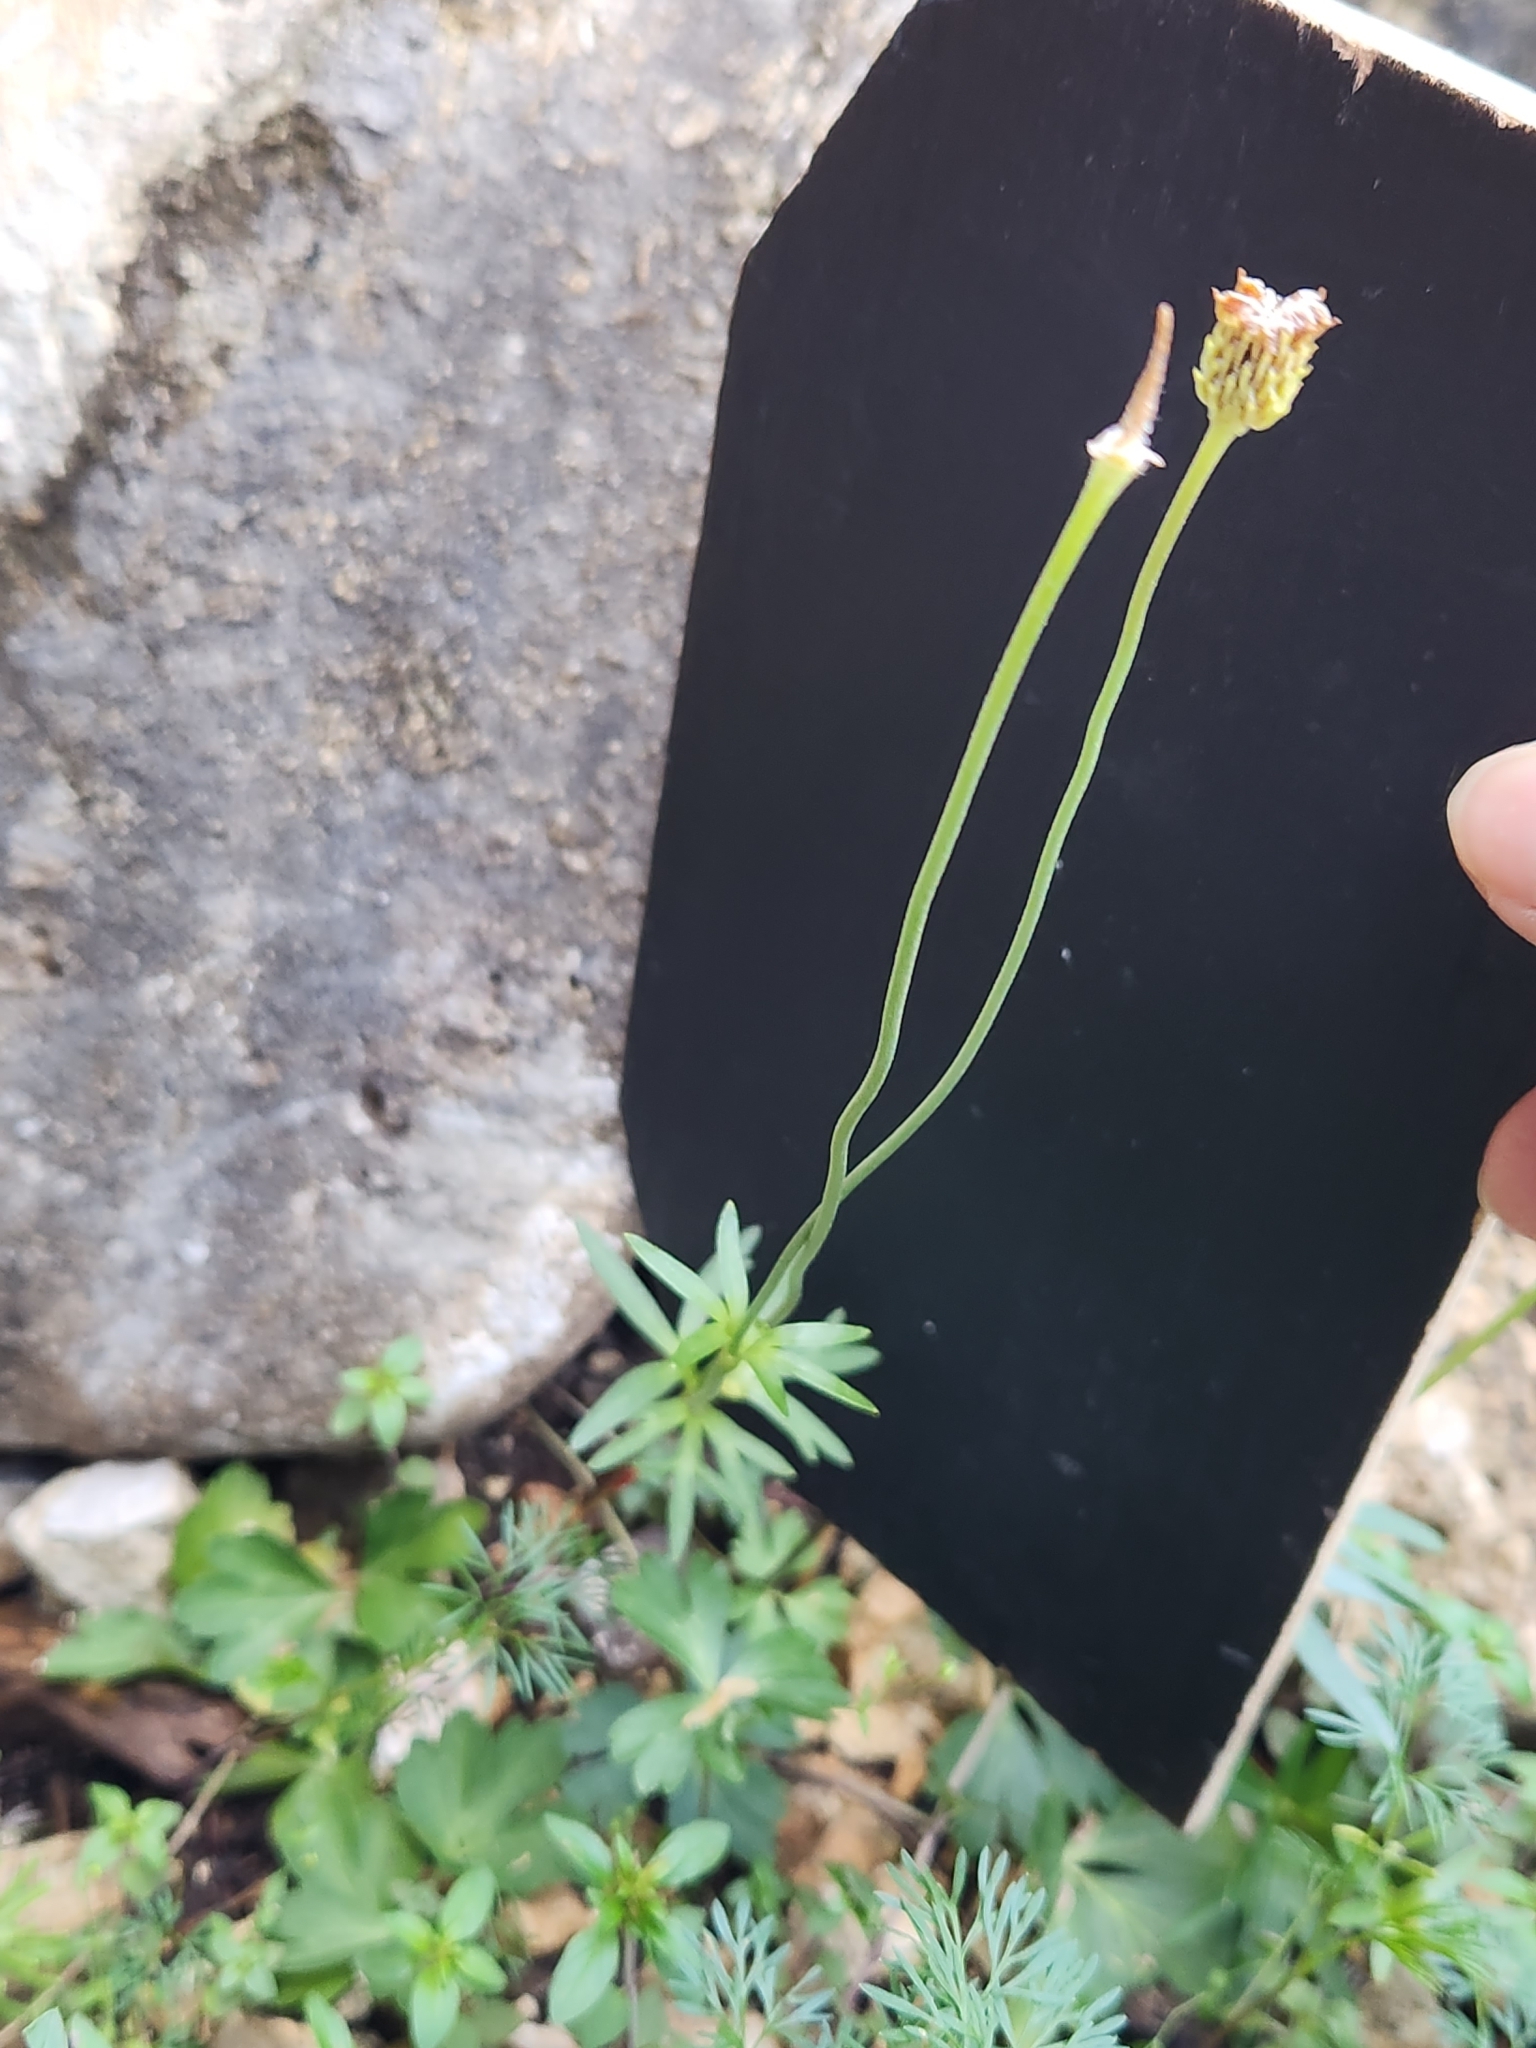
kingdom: Plantae
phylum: Tracheophyta
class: Magnoliopsida
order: Ranunculales
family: Ranunculaceae
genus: Anemone
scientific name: Anemone edwardsiana
